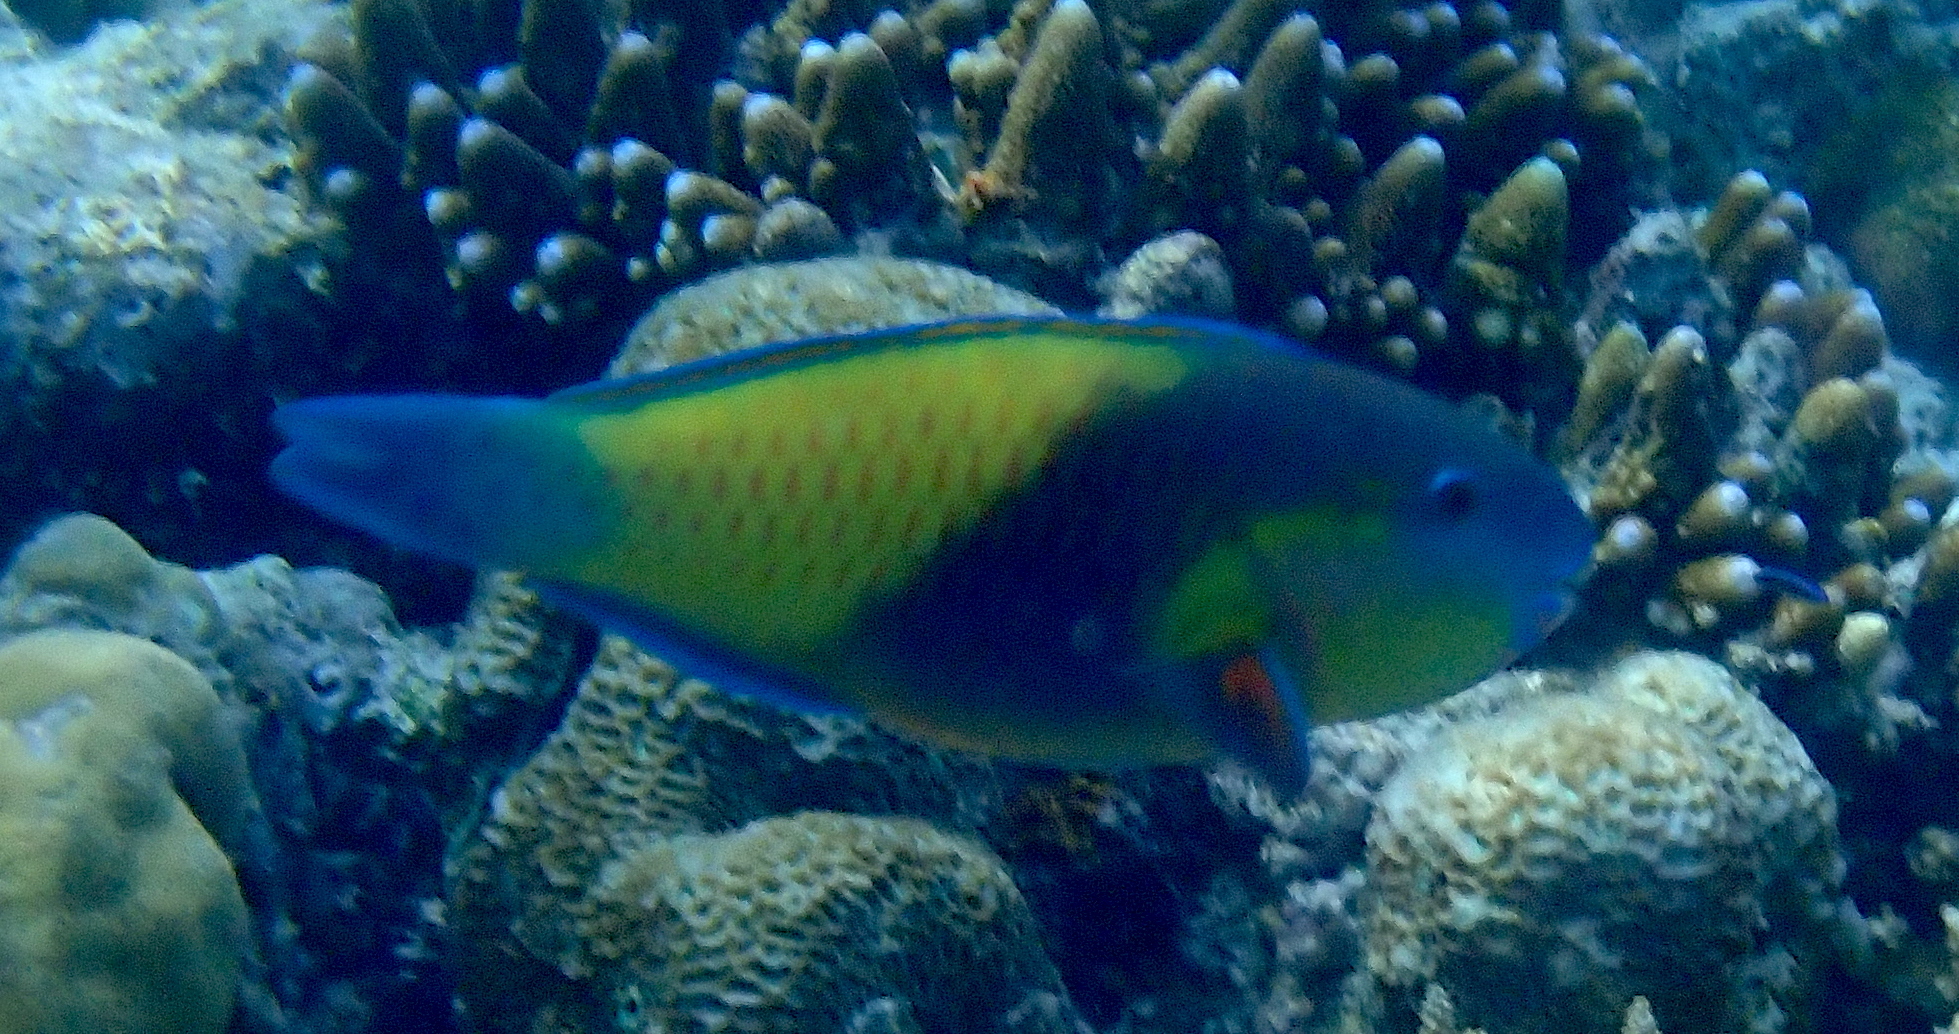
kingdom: Animalia
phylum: Chordata
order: Perciformes
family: Scaridae
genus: Chlorurus
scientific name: Chlorurus japanensis
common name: Palecheek parrotfish
